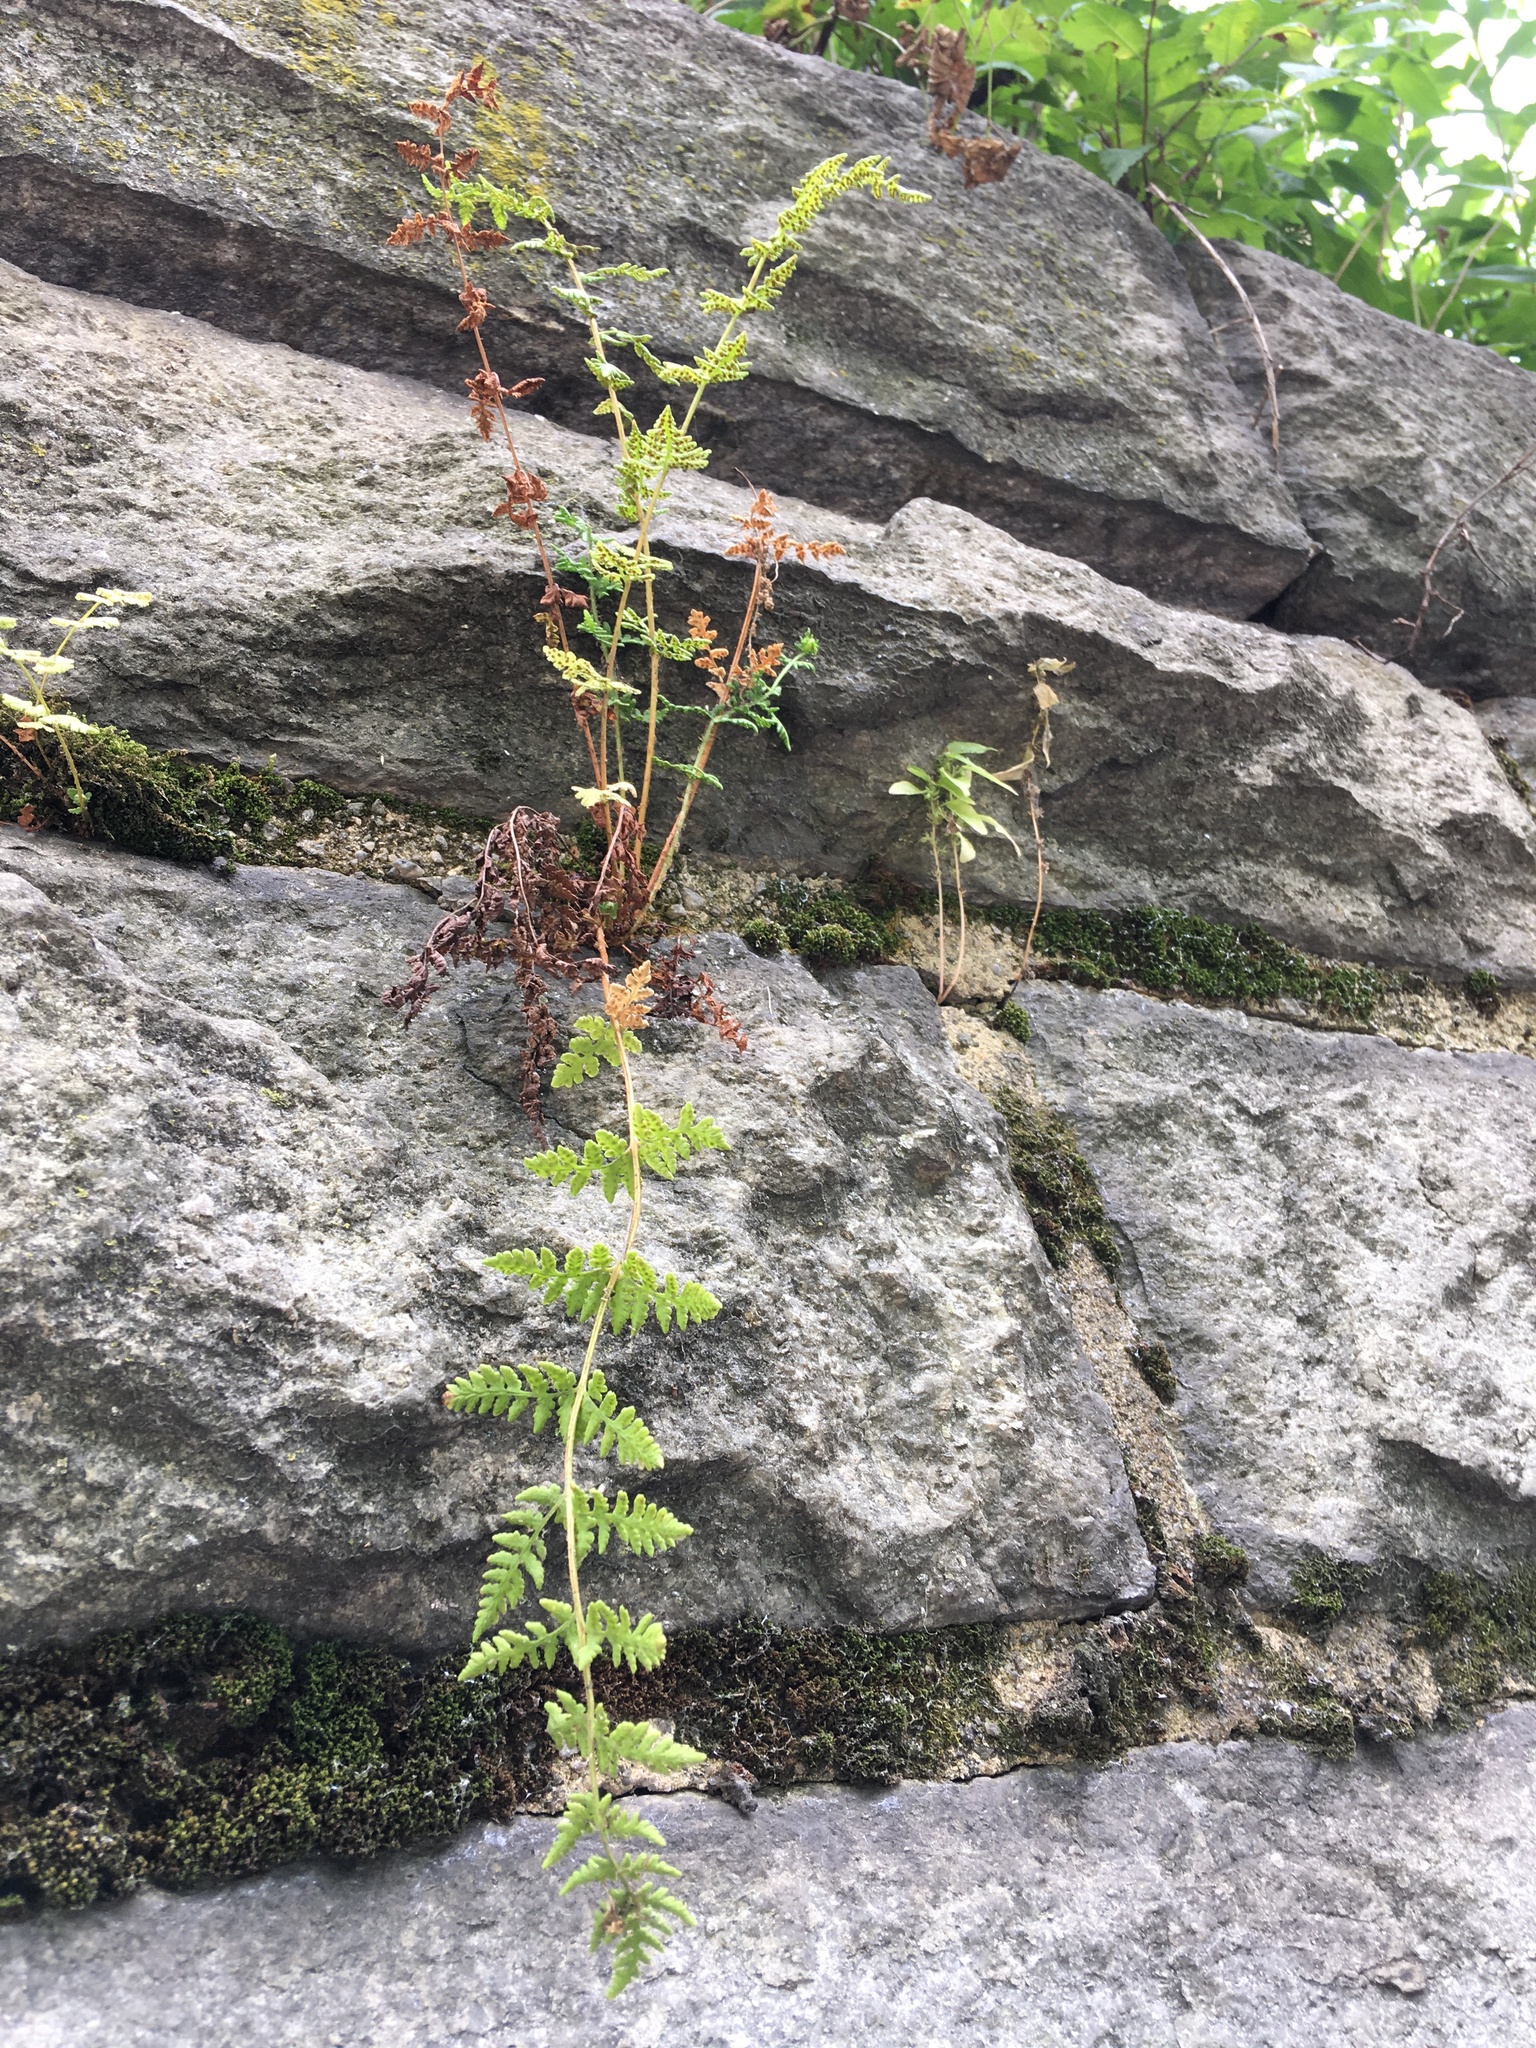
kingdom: Plantae
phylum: Tracheophyta
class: Polypodiopsida
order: Polypodiales
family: Woodsiaceae
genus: Physematium
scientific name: Physematium obtusum
